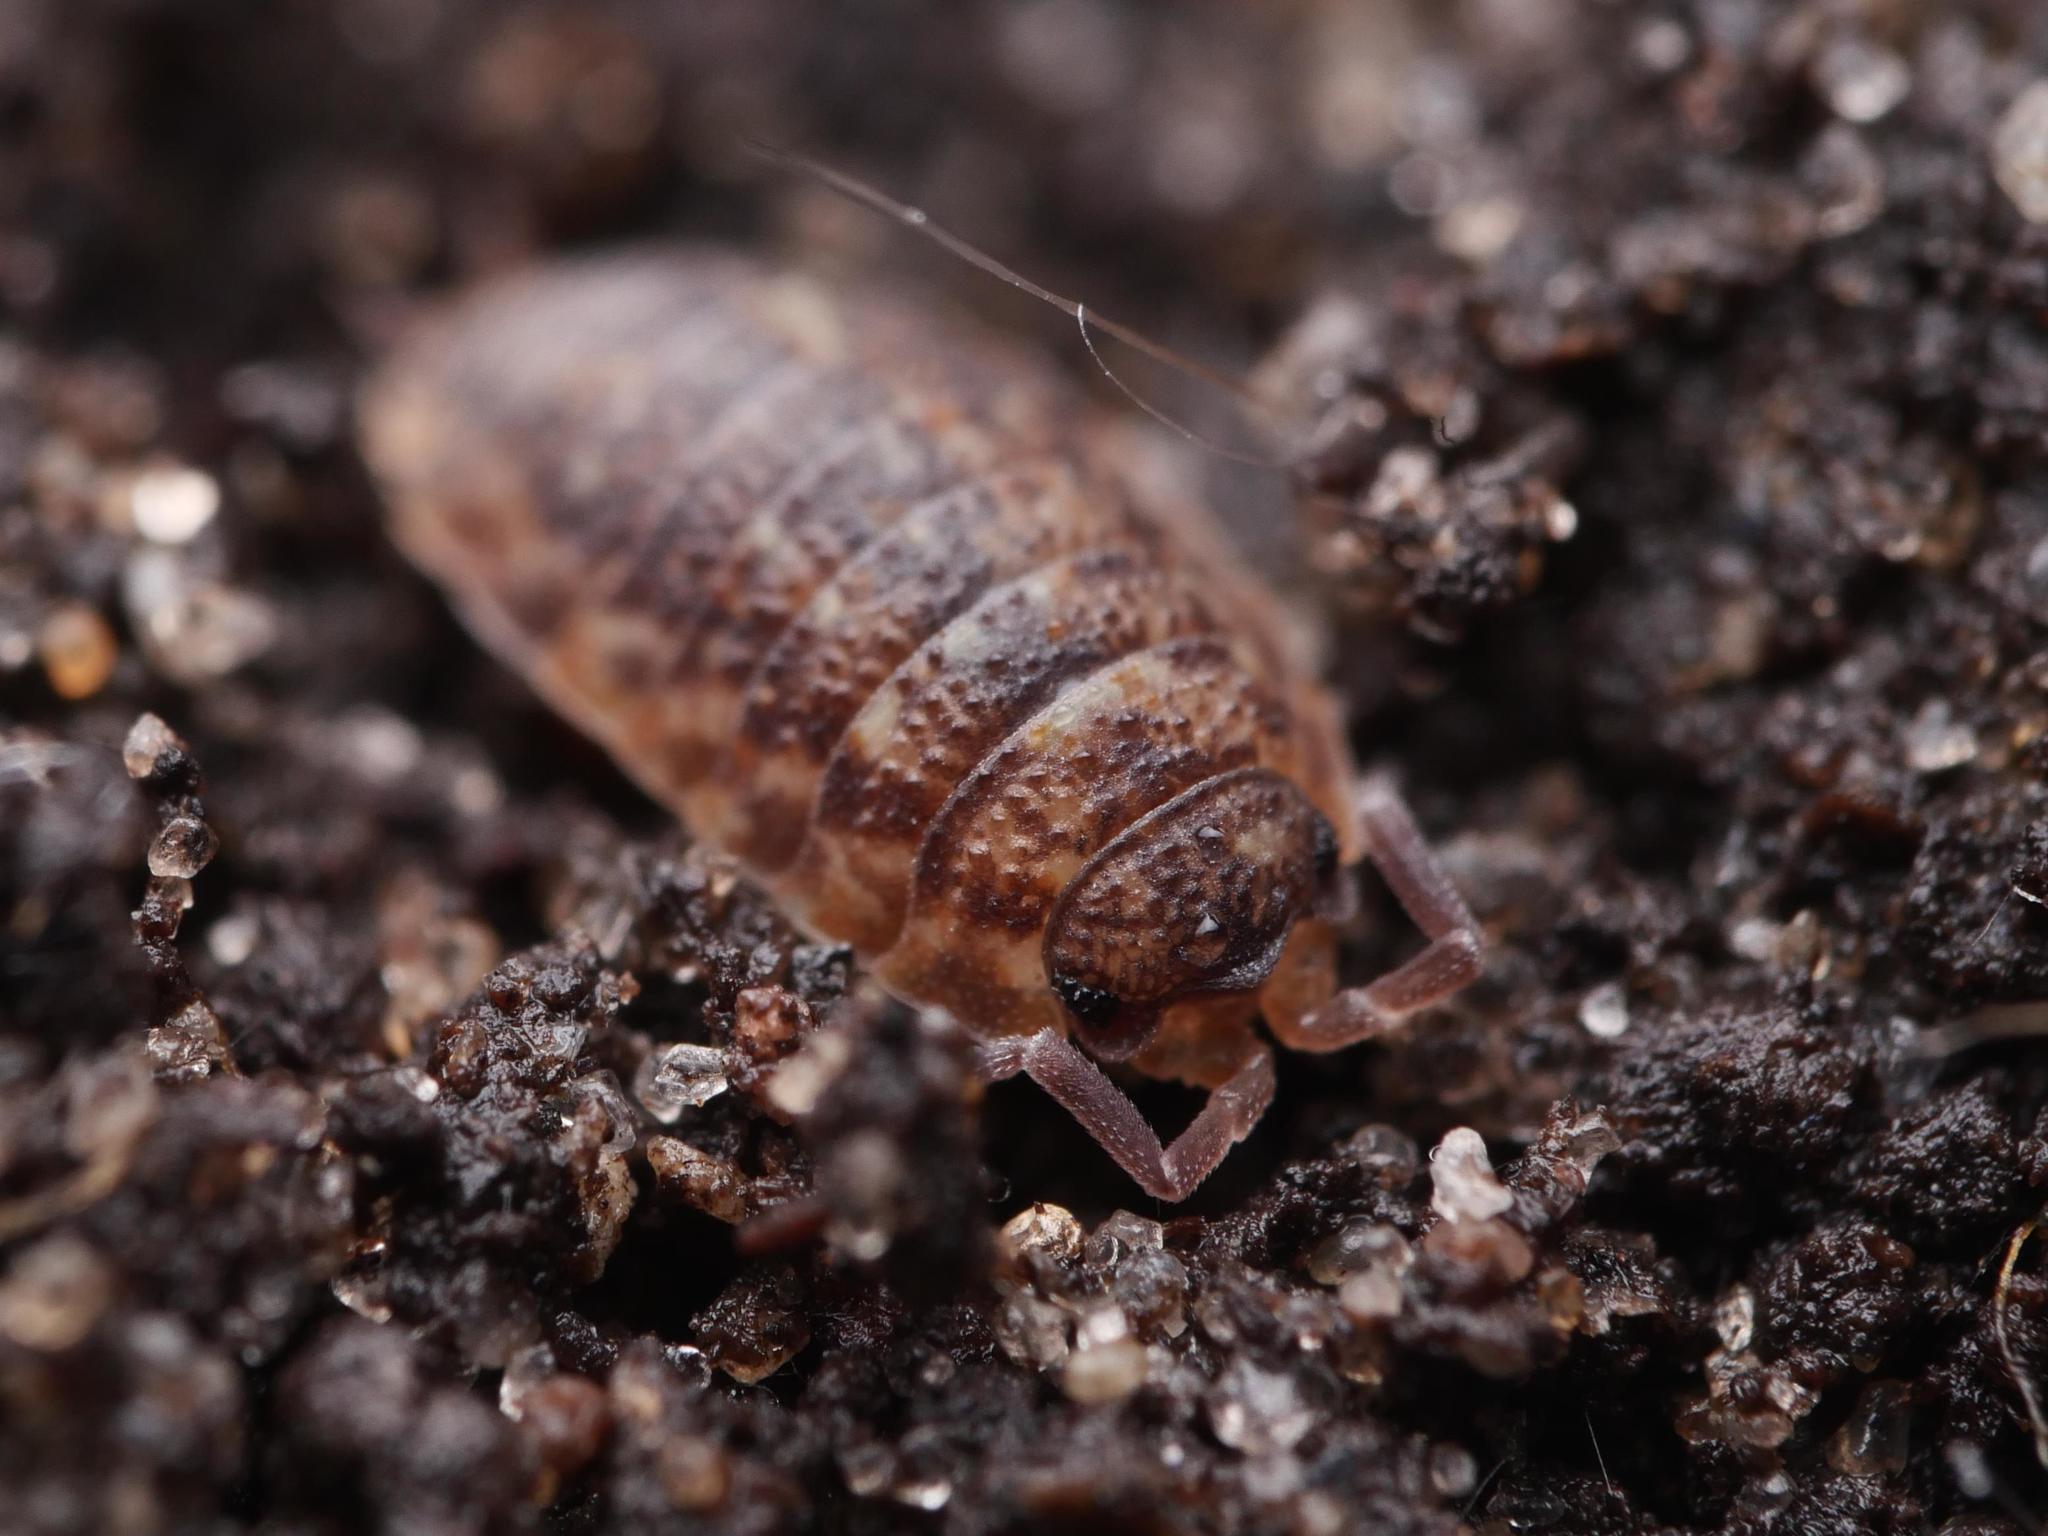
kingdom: Animalia
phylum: Arthropoda
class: Malacostraca
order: Isopoda
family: Porcellionidae
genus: Porcellio
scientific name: Porcellio scaber
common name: Common rough woodlouse
